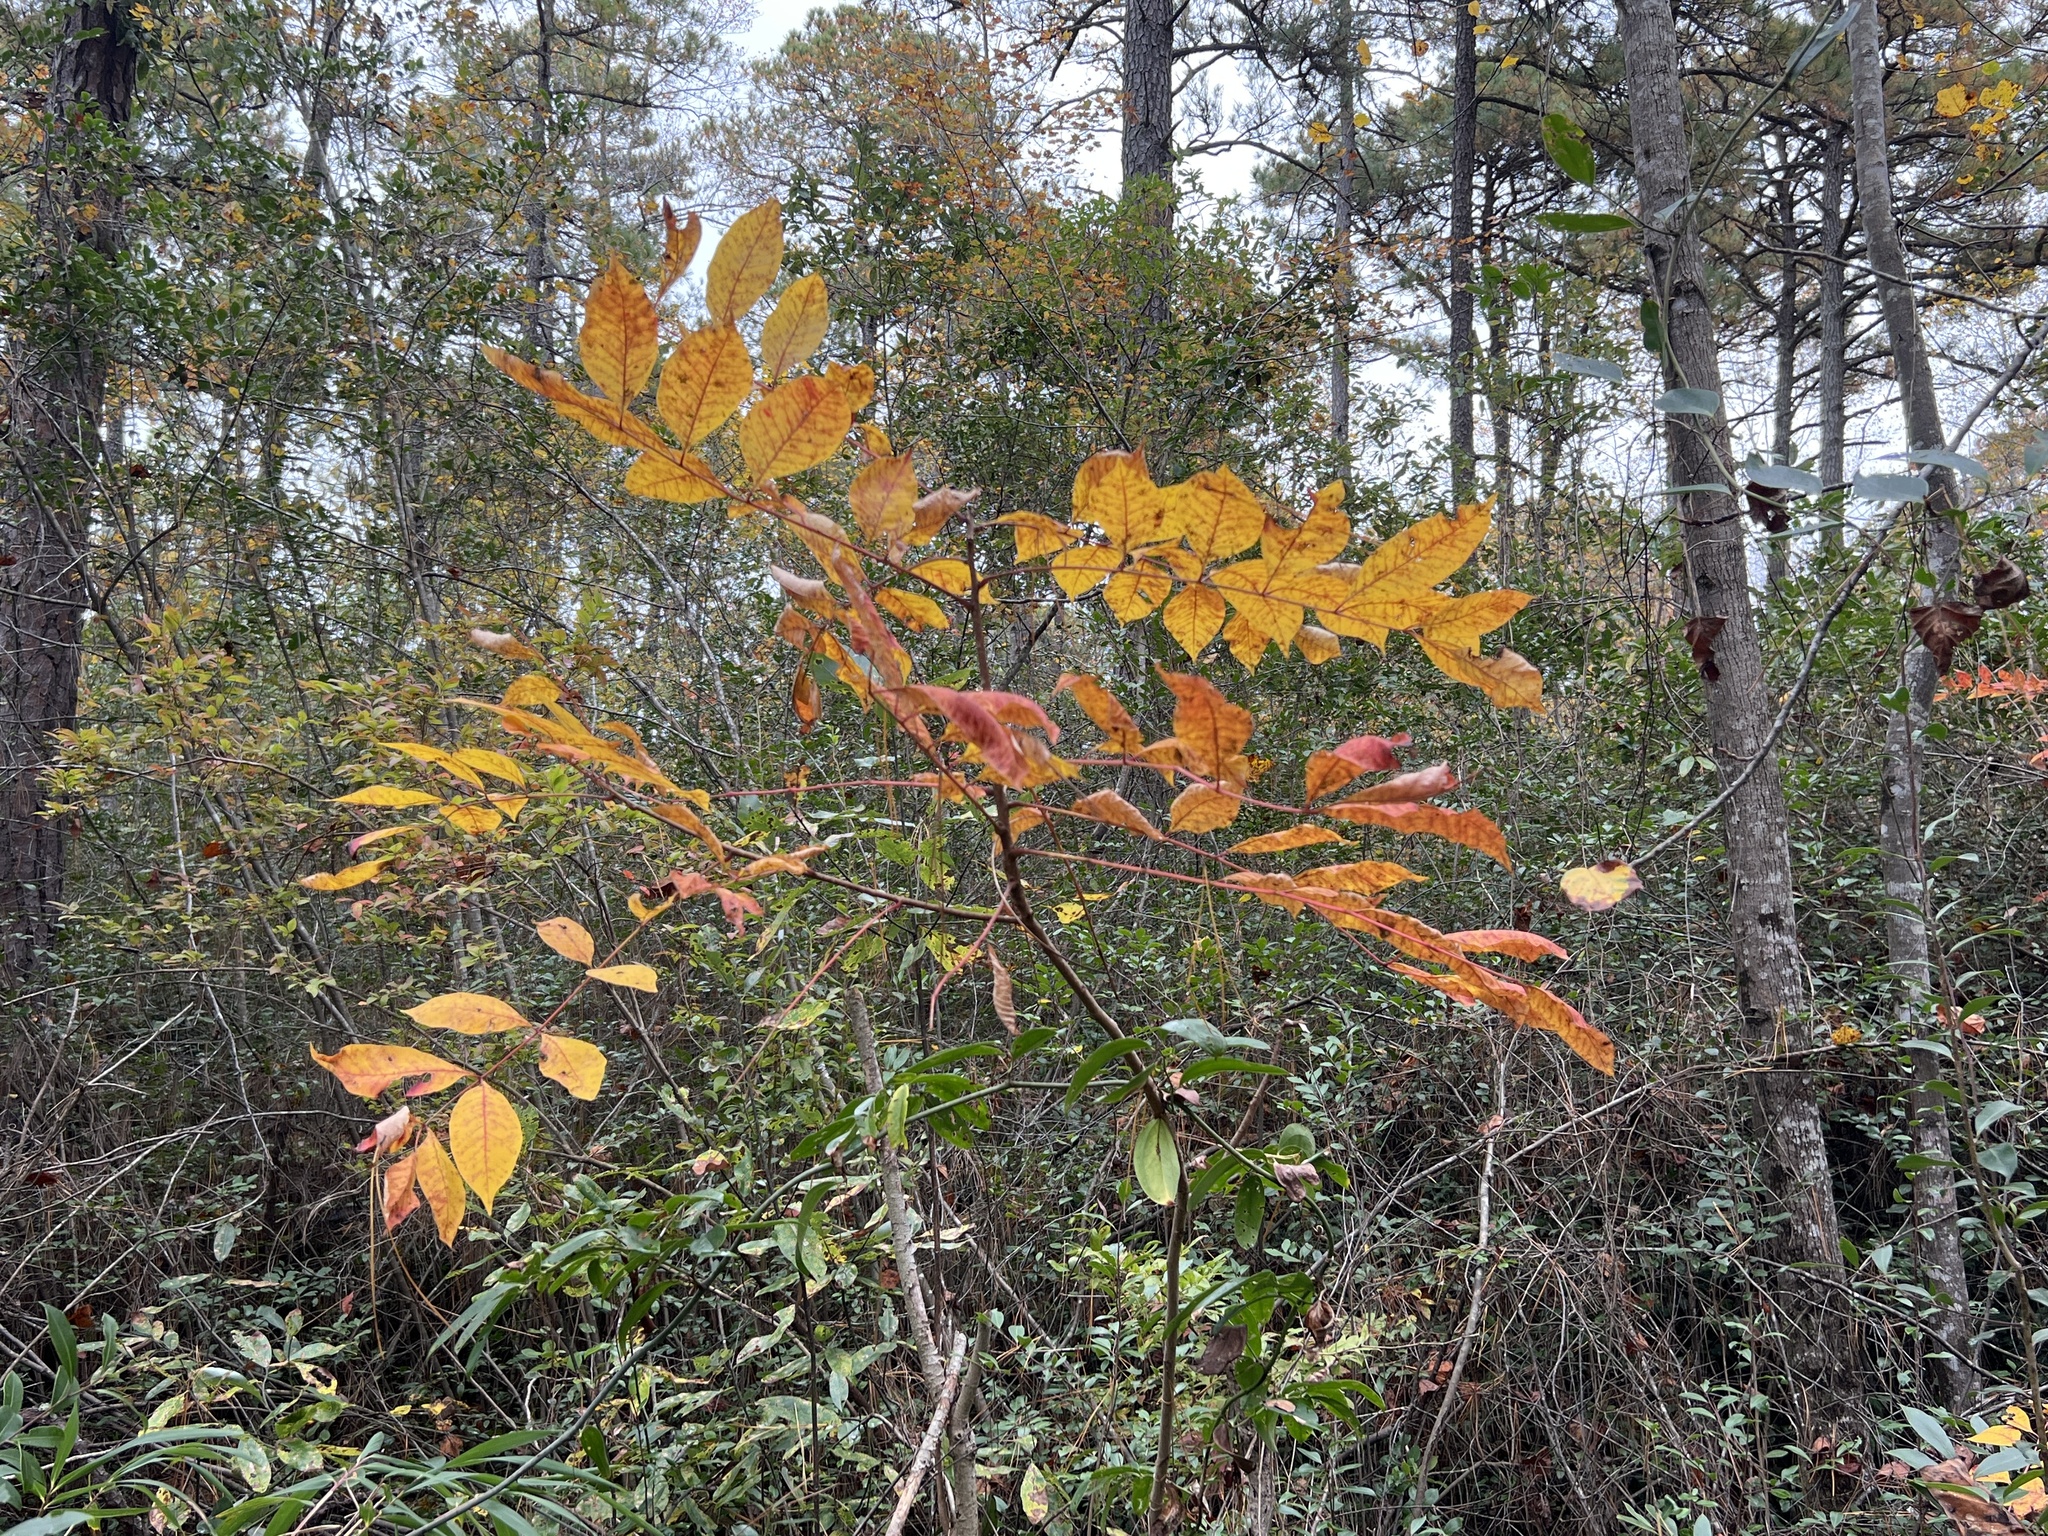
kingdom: Plantae
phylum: Tracheophyta
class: Magnoliopsida
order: Sapindales
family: Anacardiaceae
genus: Toxicodendron
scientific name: Toxicodendron vernix
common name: Poison sumac
